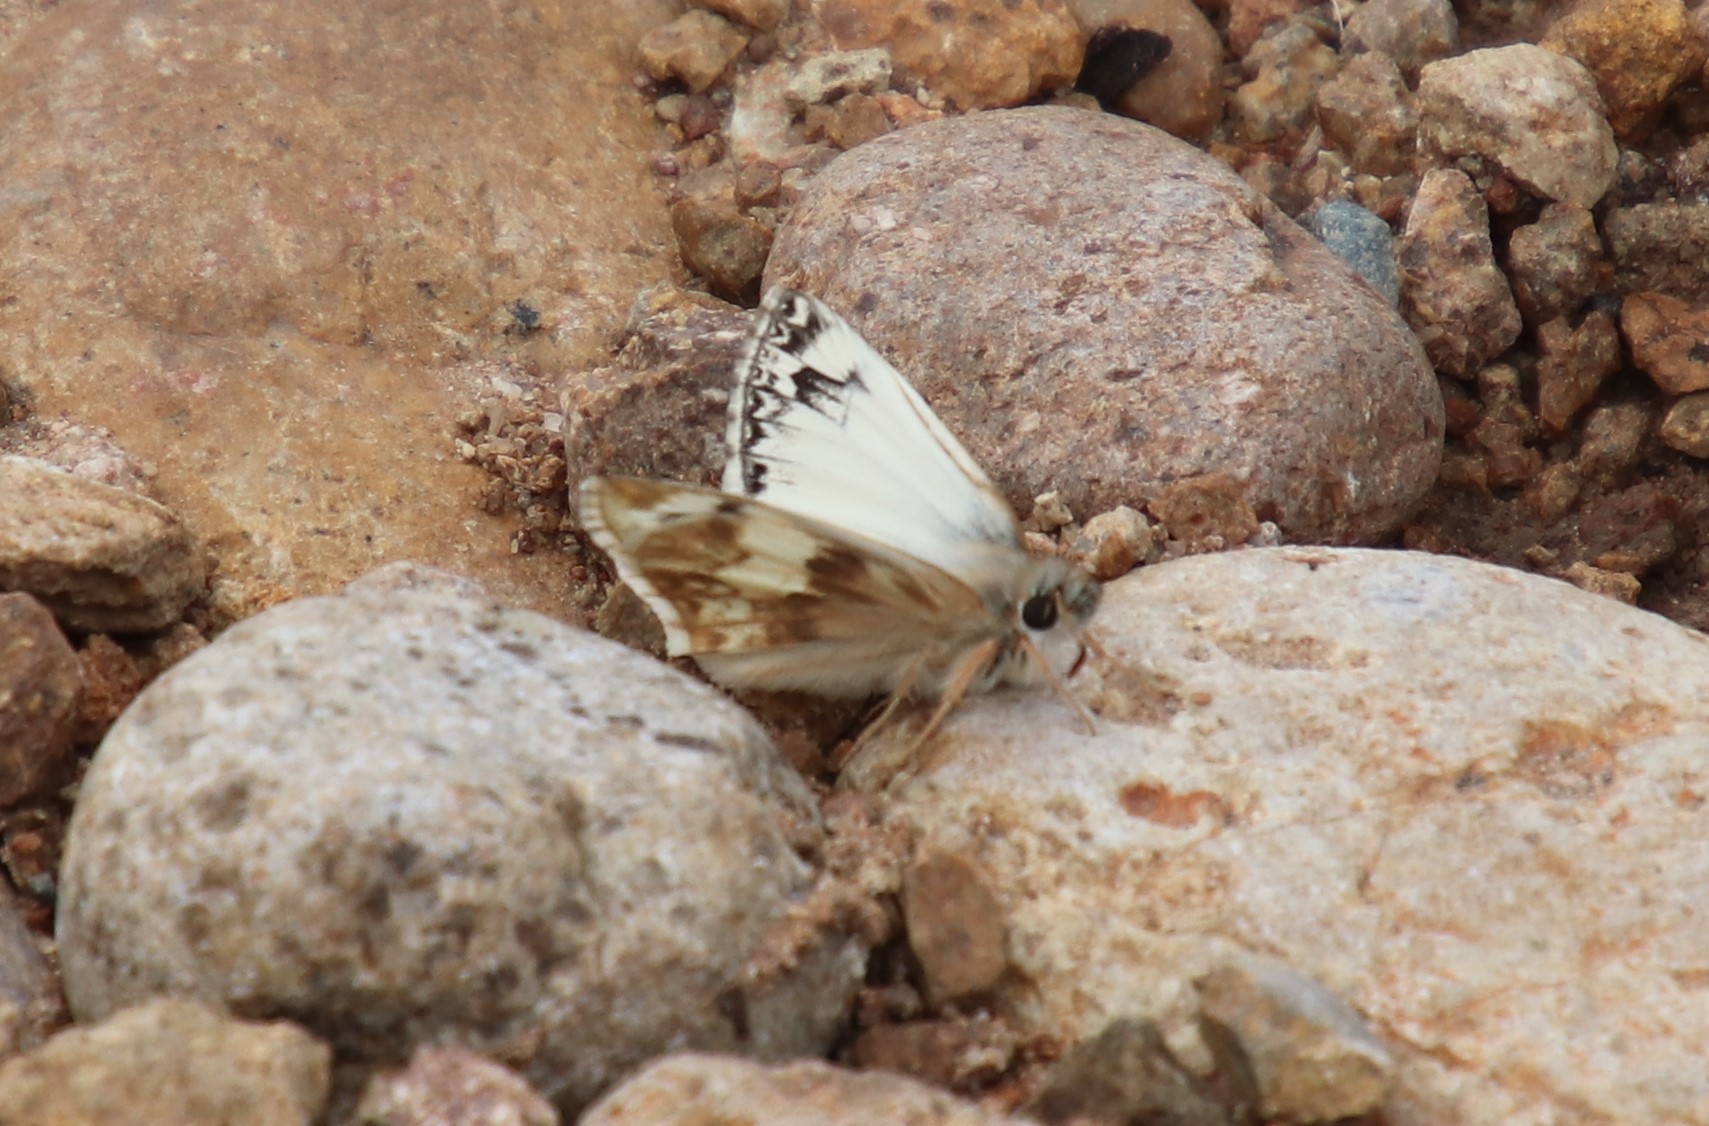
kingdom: Animalia
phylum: Arthropoda
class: Insecta
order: Lepidoptera
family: Hesperiidae
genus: Heliopetes
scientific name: Heliopetes ericetorum
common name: Northern white-skipper
